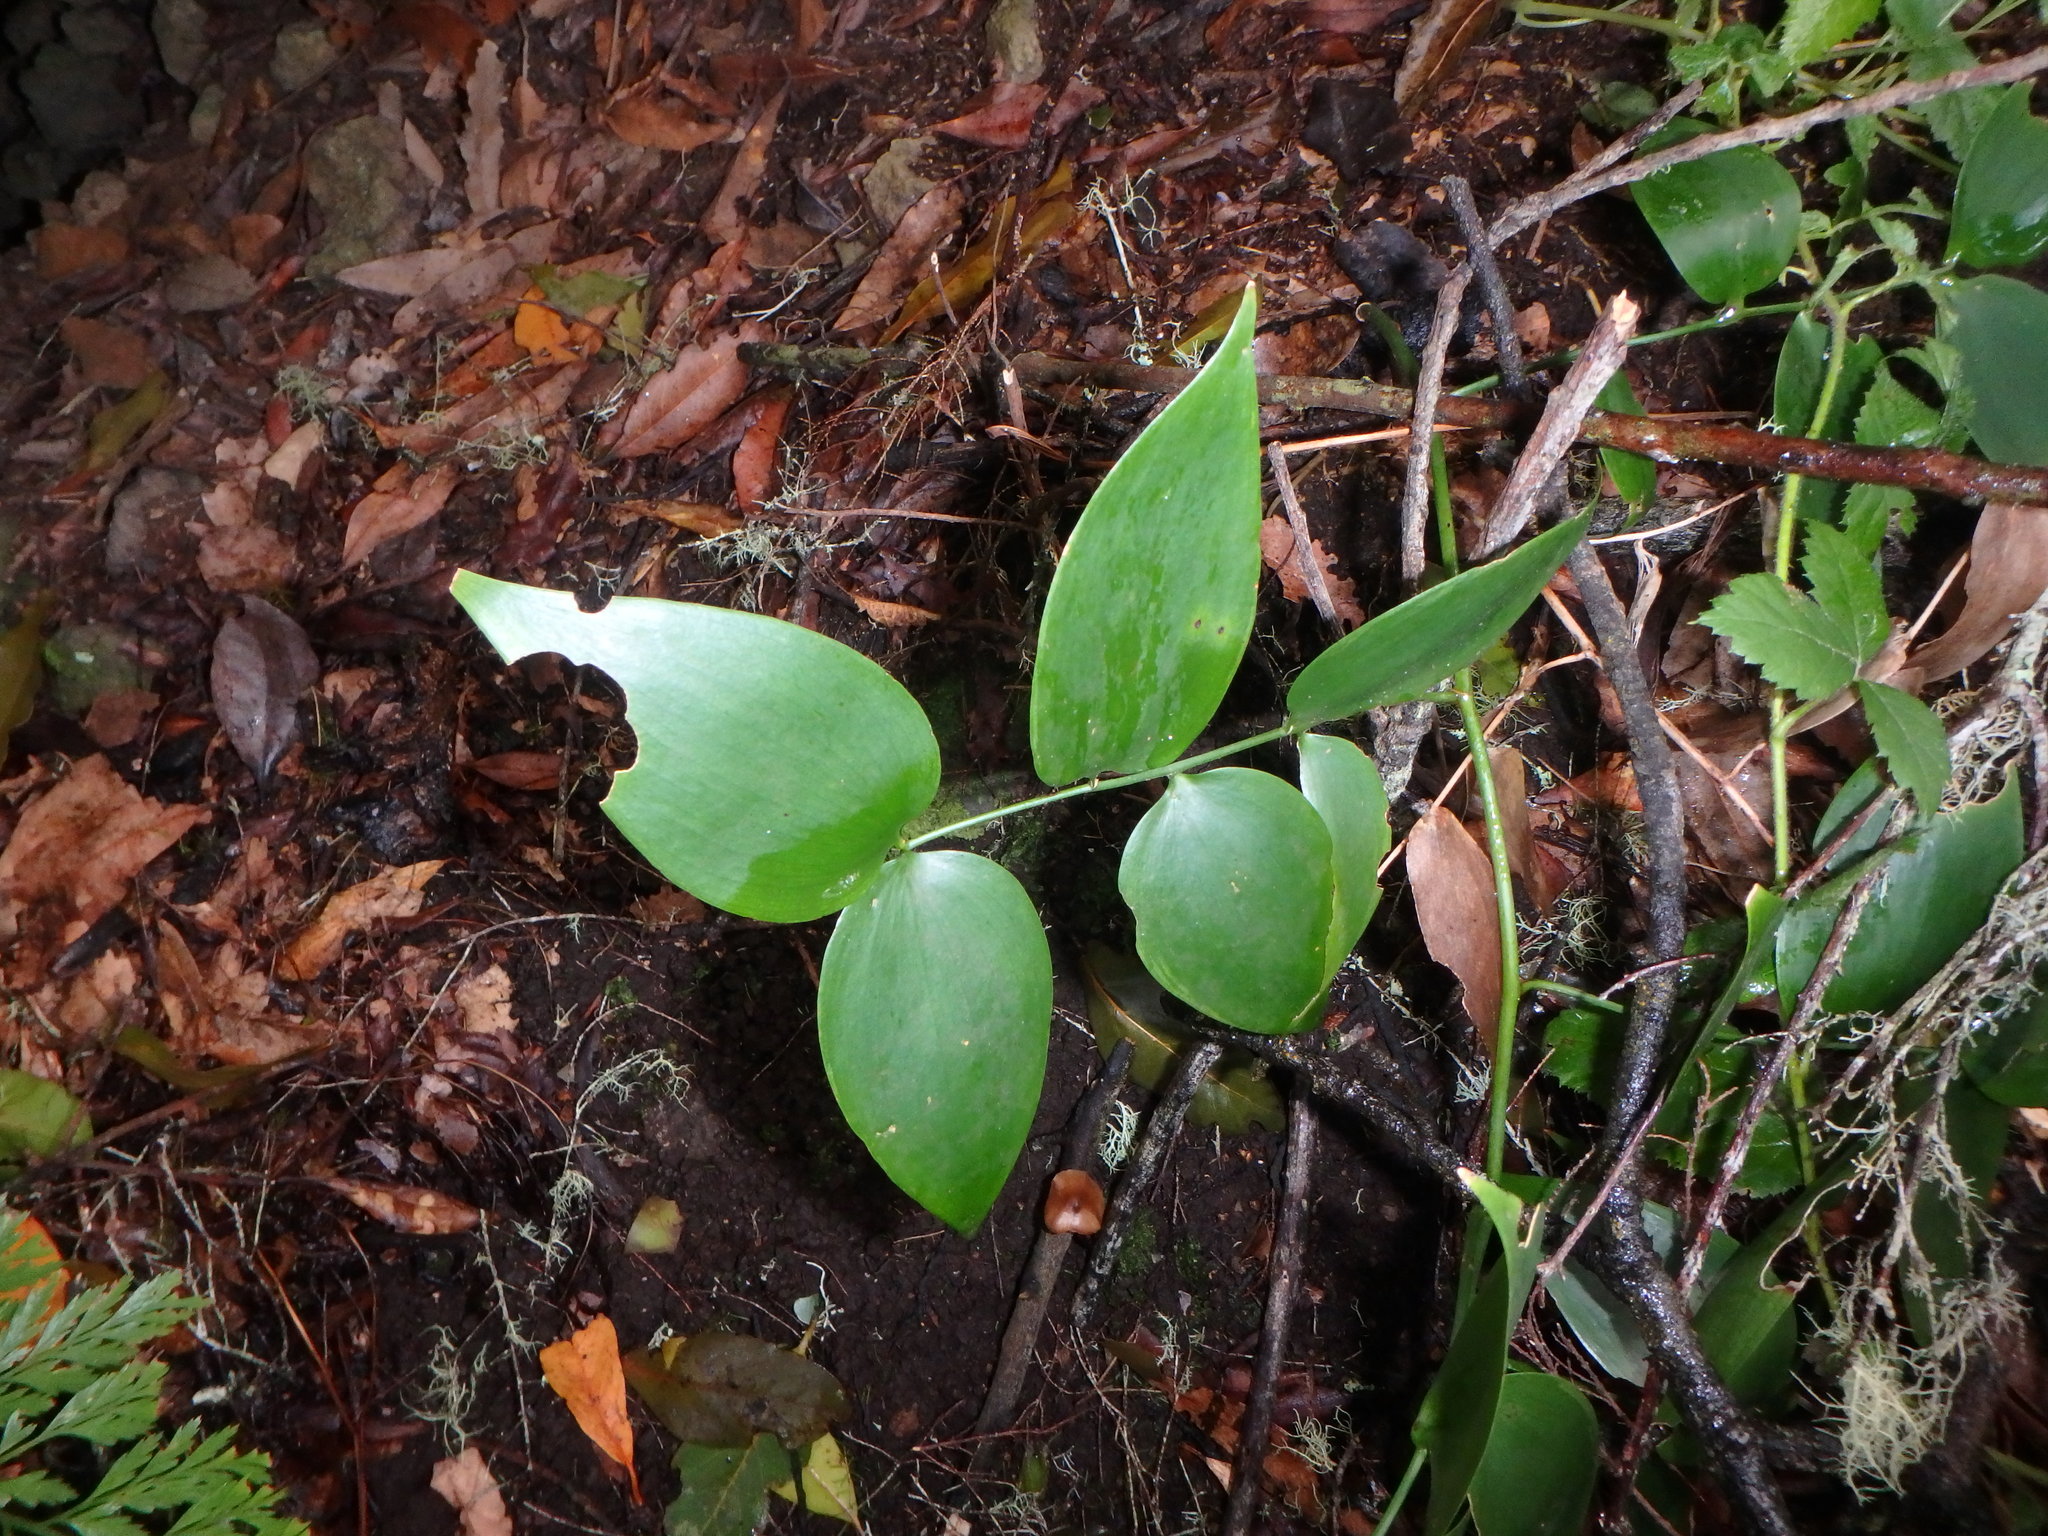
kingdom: Plantae
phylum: Tracheophyta
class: Liliopsida
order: Asparagales
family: Asparagaceae
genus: Semele
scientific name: Semele androgyna
